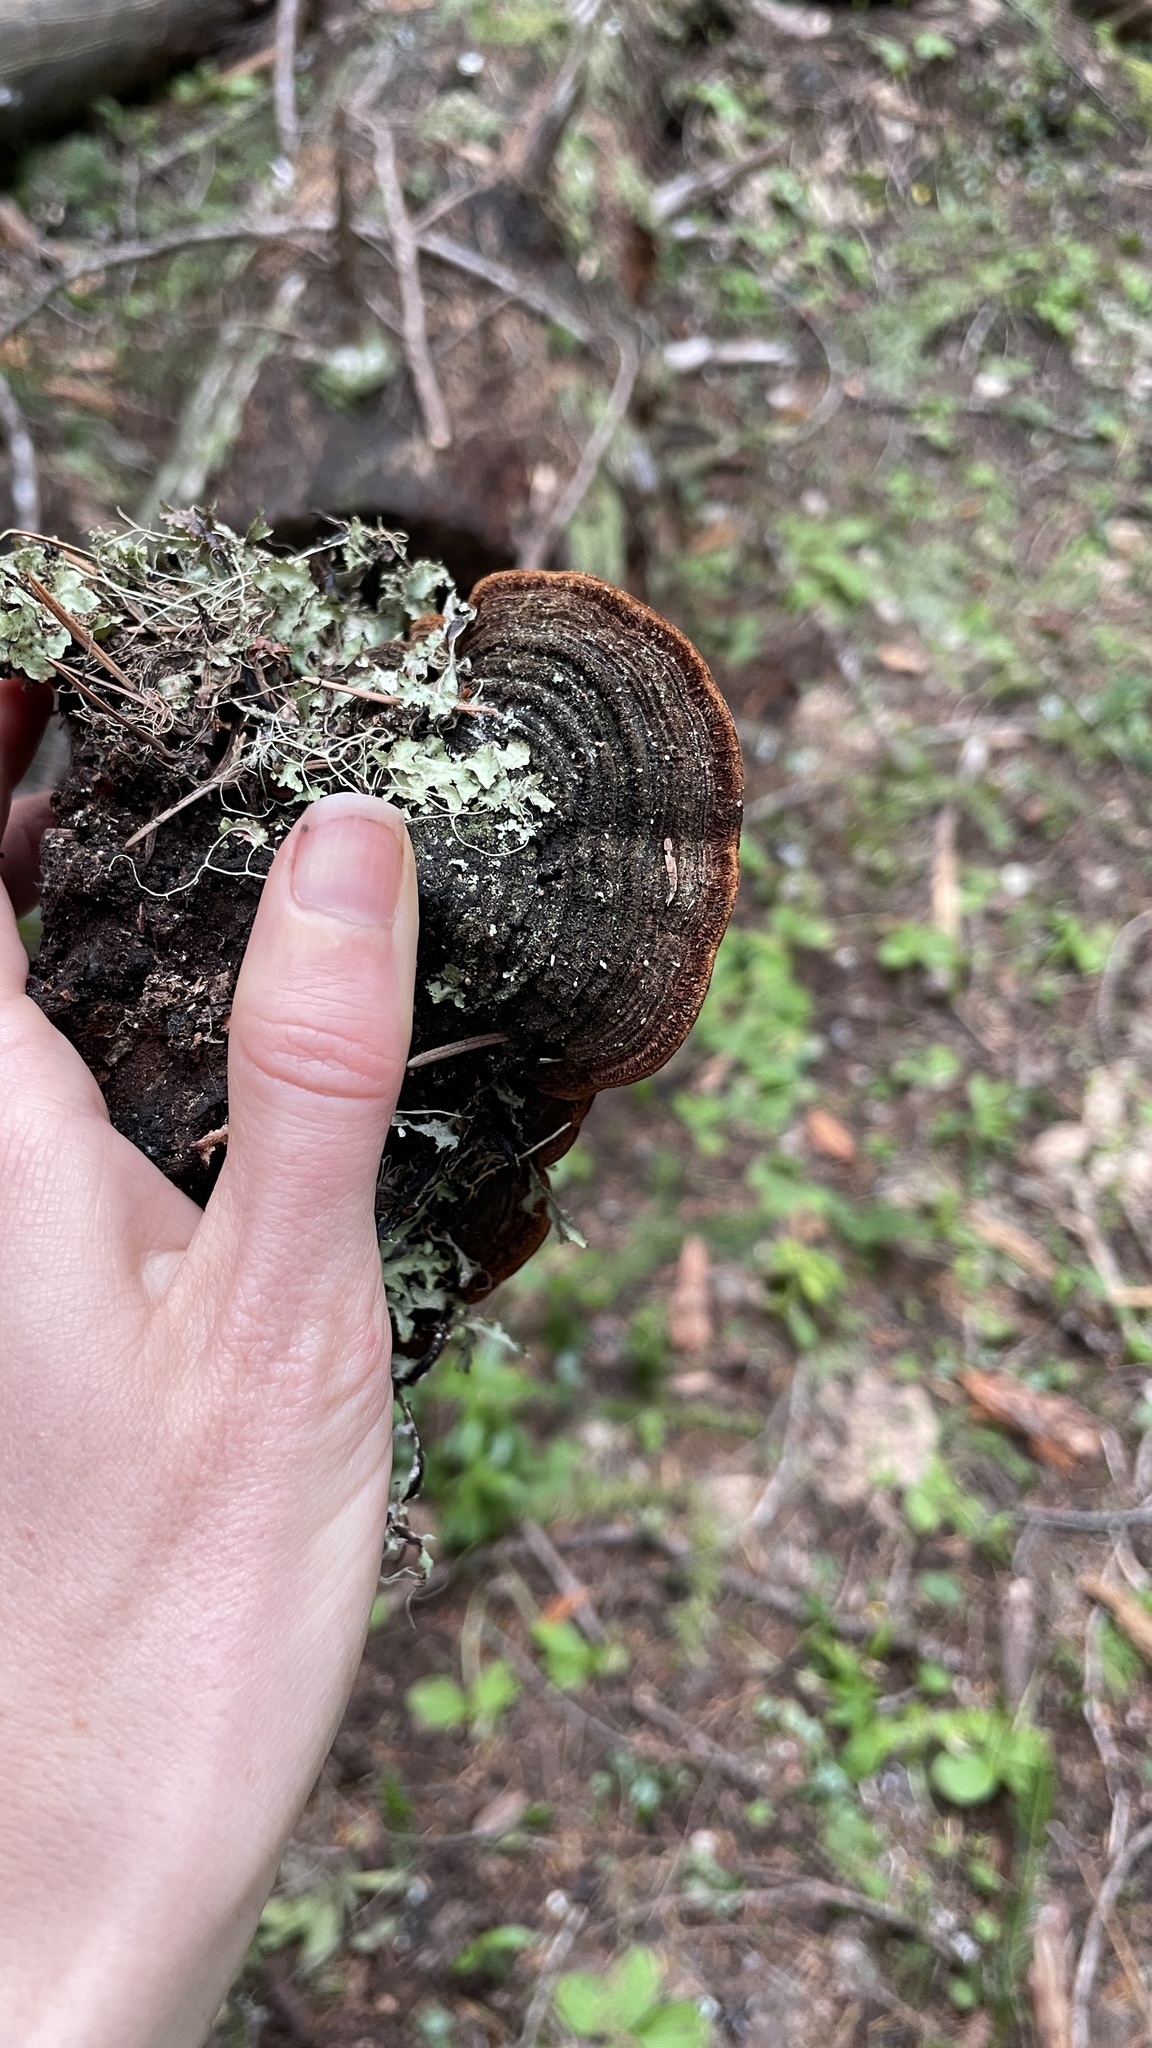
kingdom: Fungi
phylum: Basidiomycota
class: Agaricomycetes
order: Hymenochaetales
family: Hymenochaetaceae
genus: Porodaedalea
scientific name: Porodaedalea pini
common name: Pine bracket
